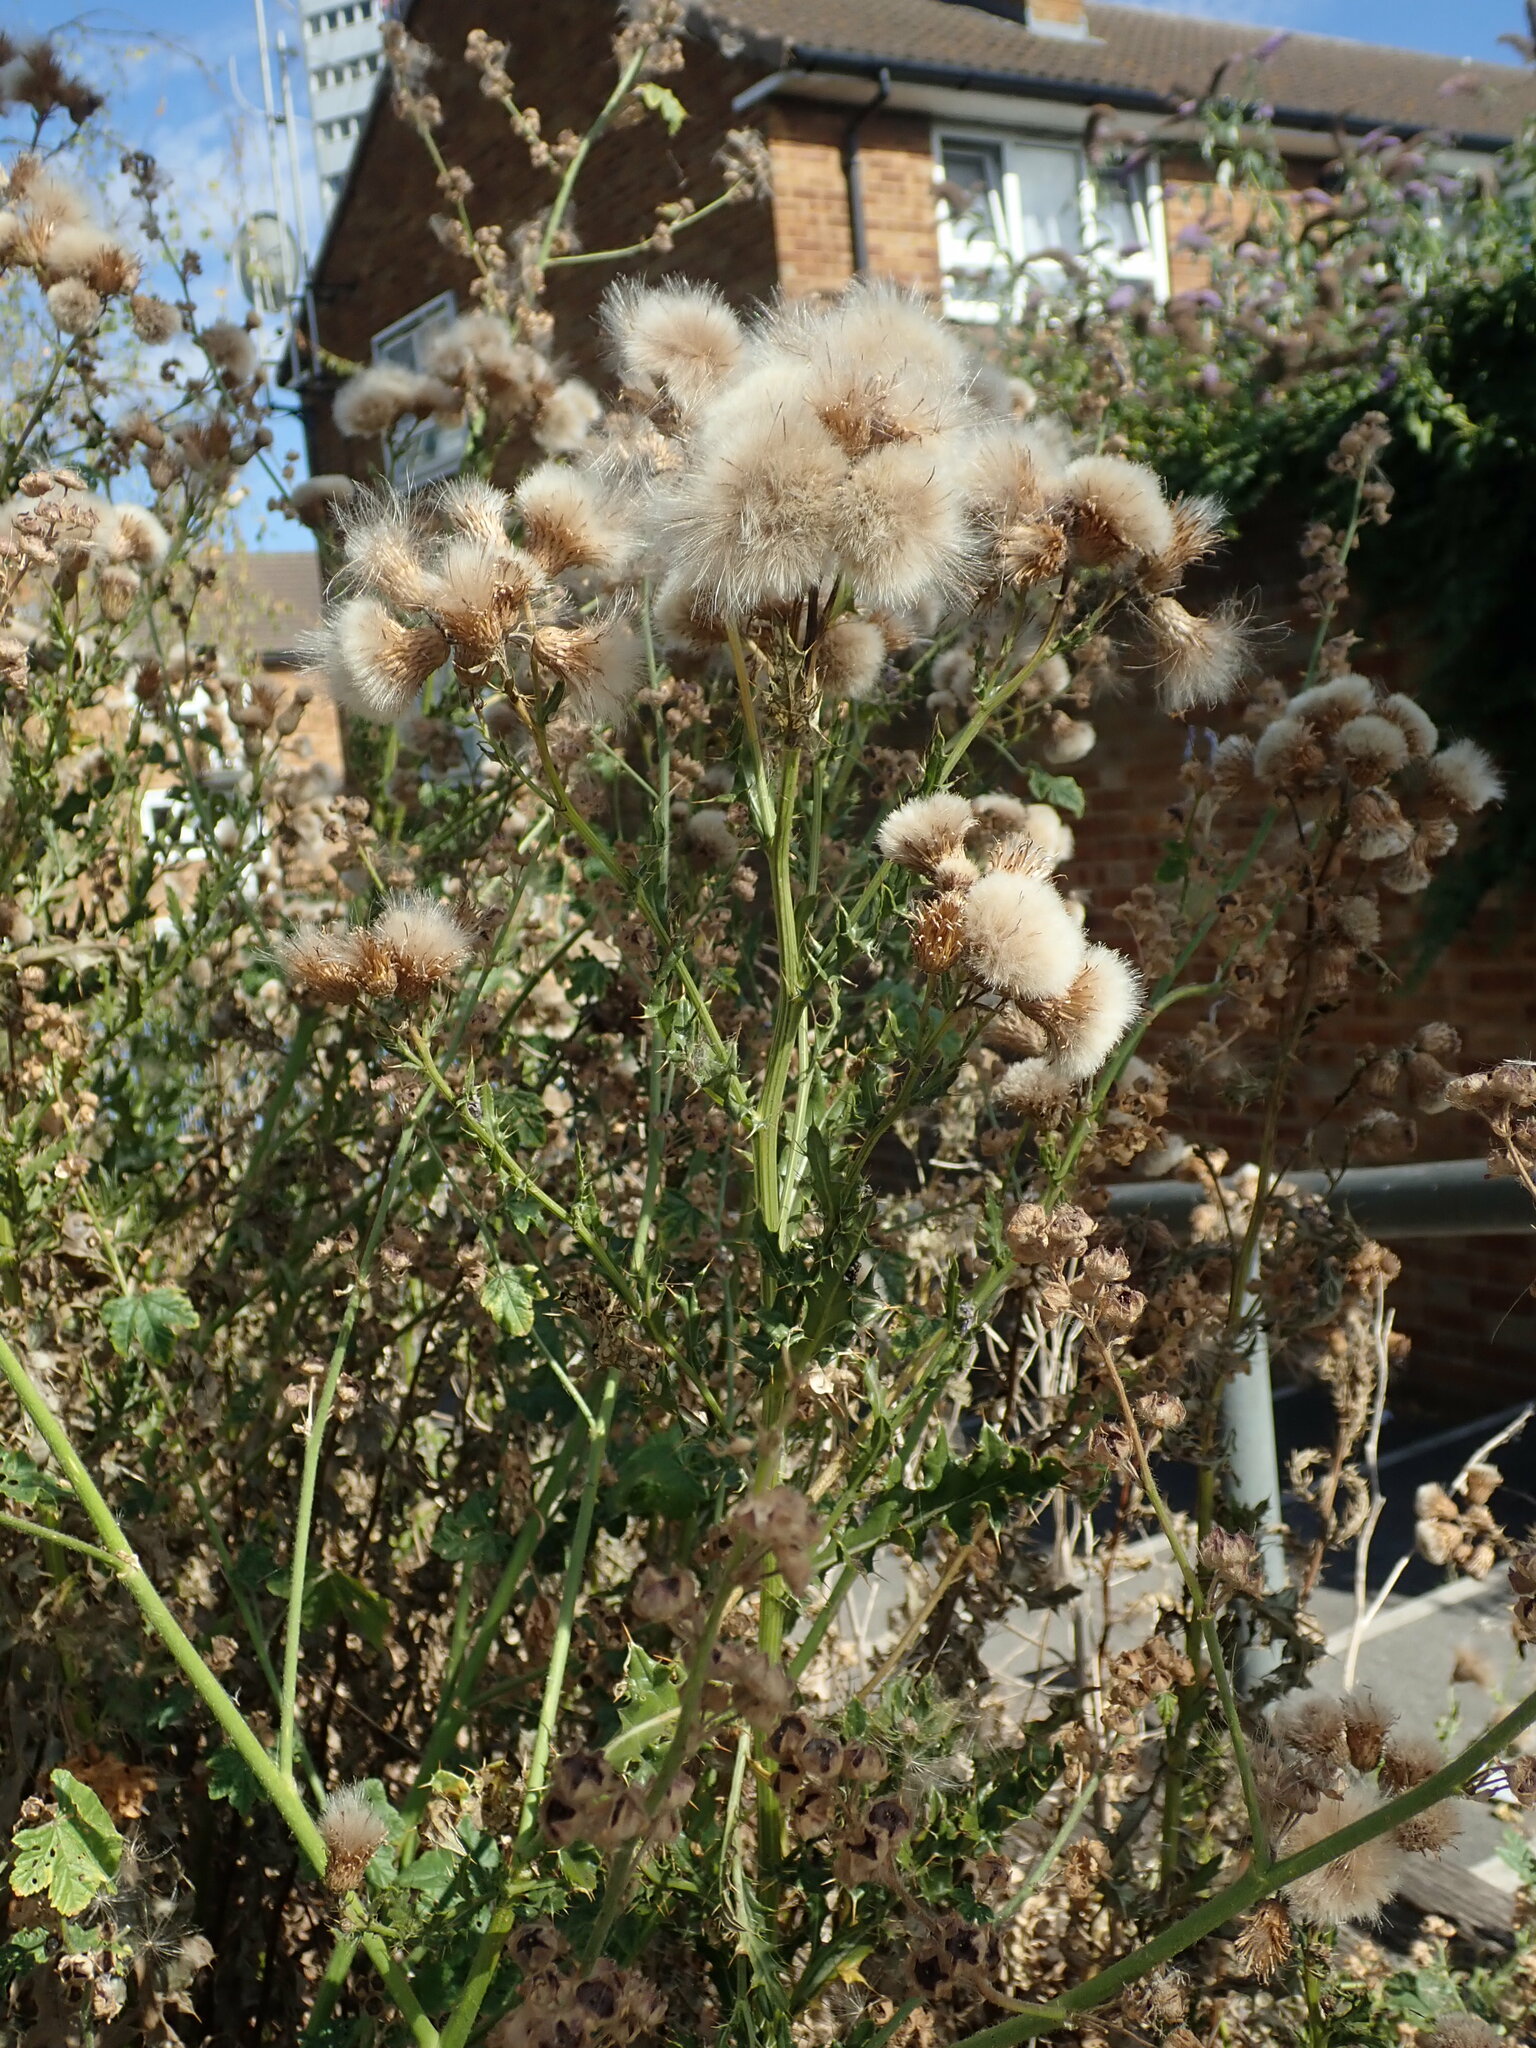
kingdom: Plantae
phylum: Tracheophyta
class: Magnoliopsida
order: Asterales
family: Asteraceae
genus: Cirsium
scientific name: Cirsium arvense
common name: Creeping thistle
